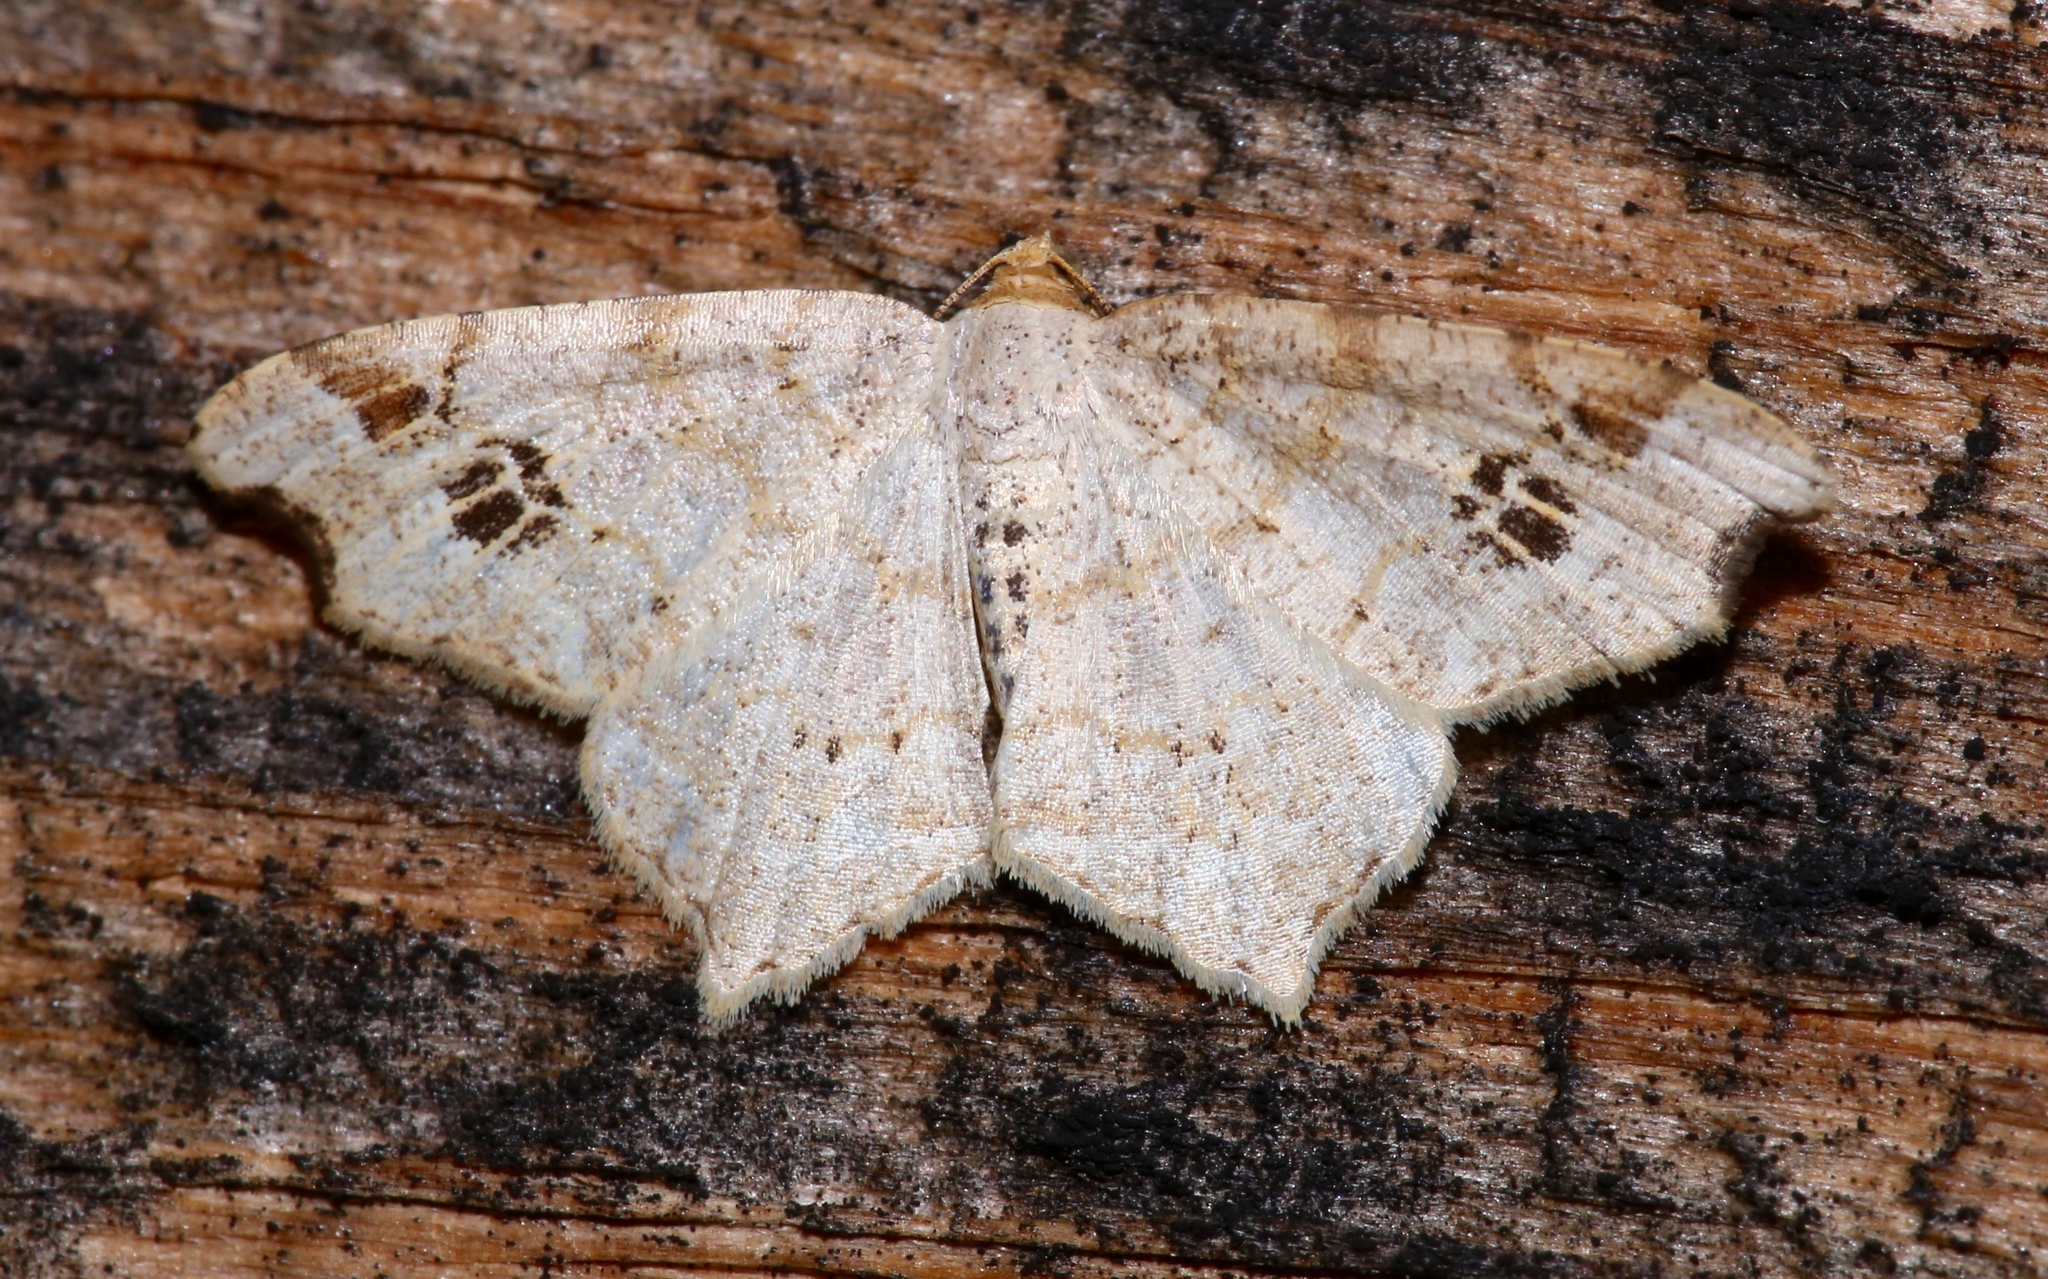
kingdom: Animalia
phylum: Arthropoda
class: Insecta
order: Lepidoptera
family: Geometridae
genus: Macaria
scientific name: Macaria aemulataria
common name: Common angle
